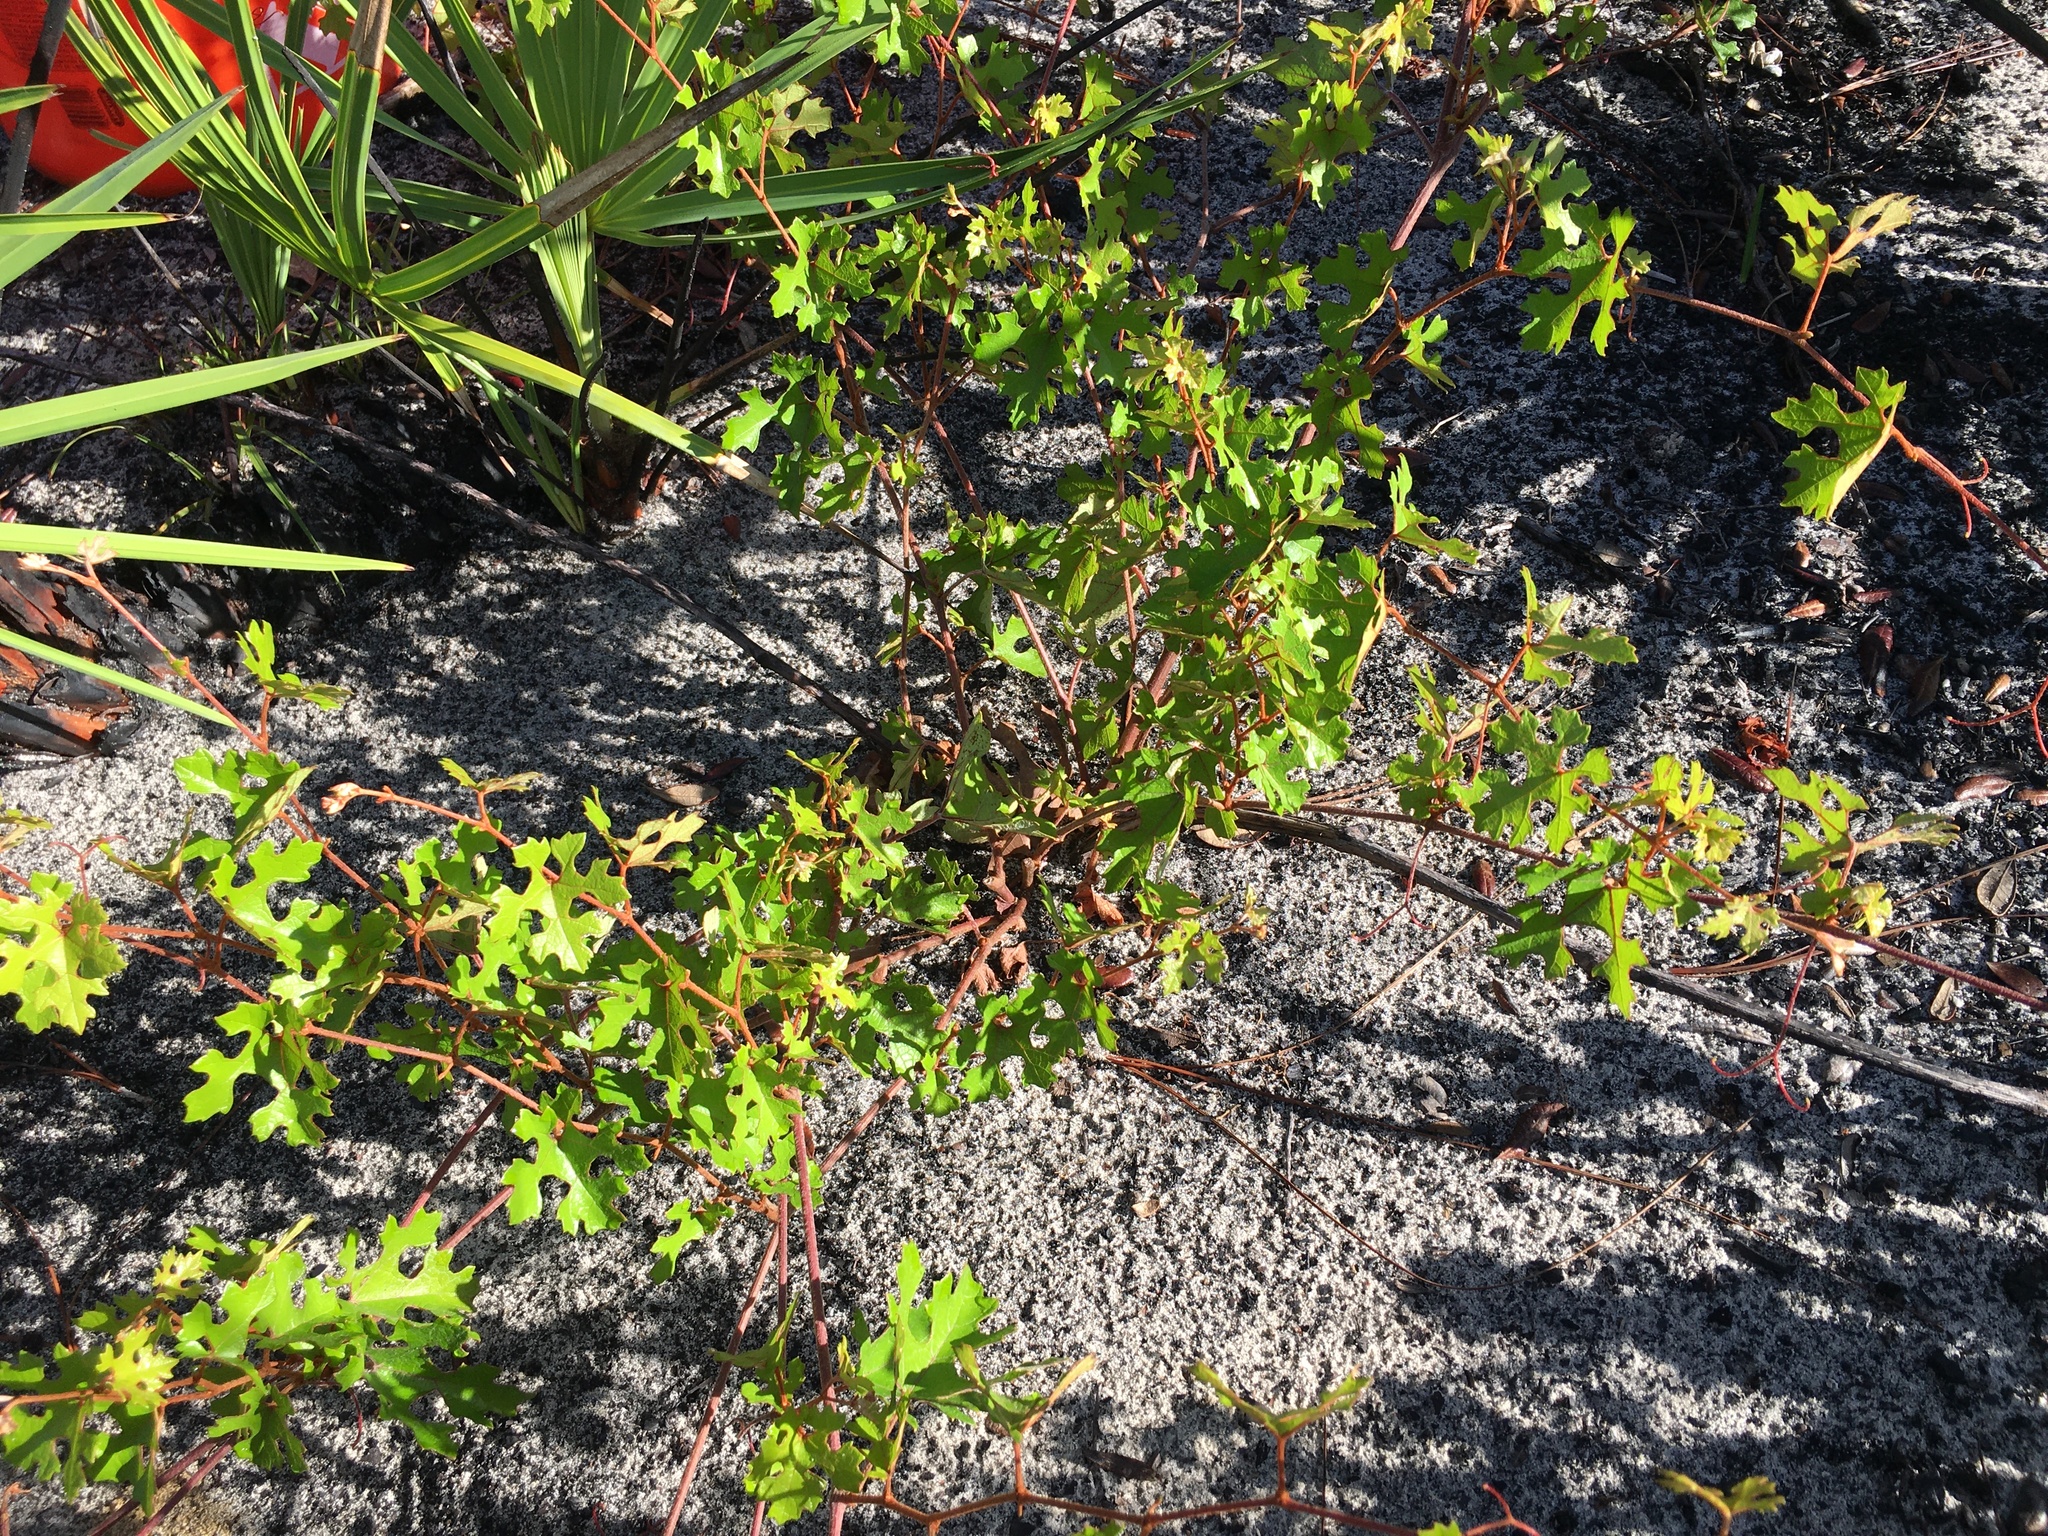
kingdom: Plantae
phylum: Tracheophyta
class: Magnoliopsida
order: Vitales
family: Vitaceae
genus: Vitis
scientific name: Vitis
